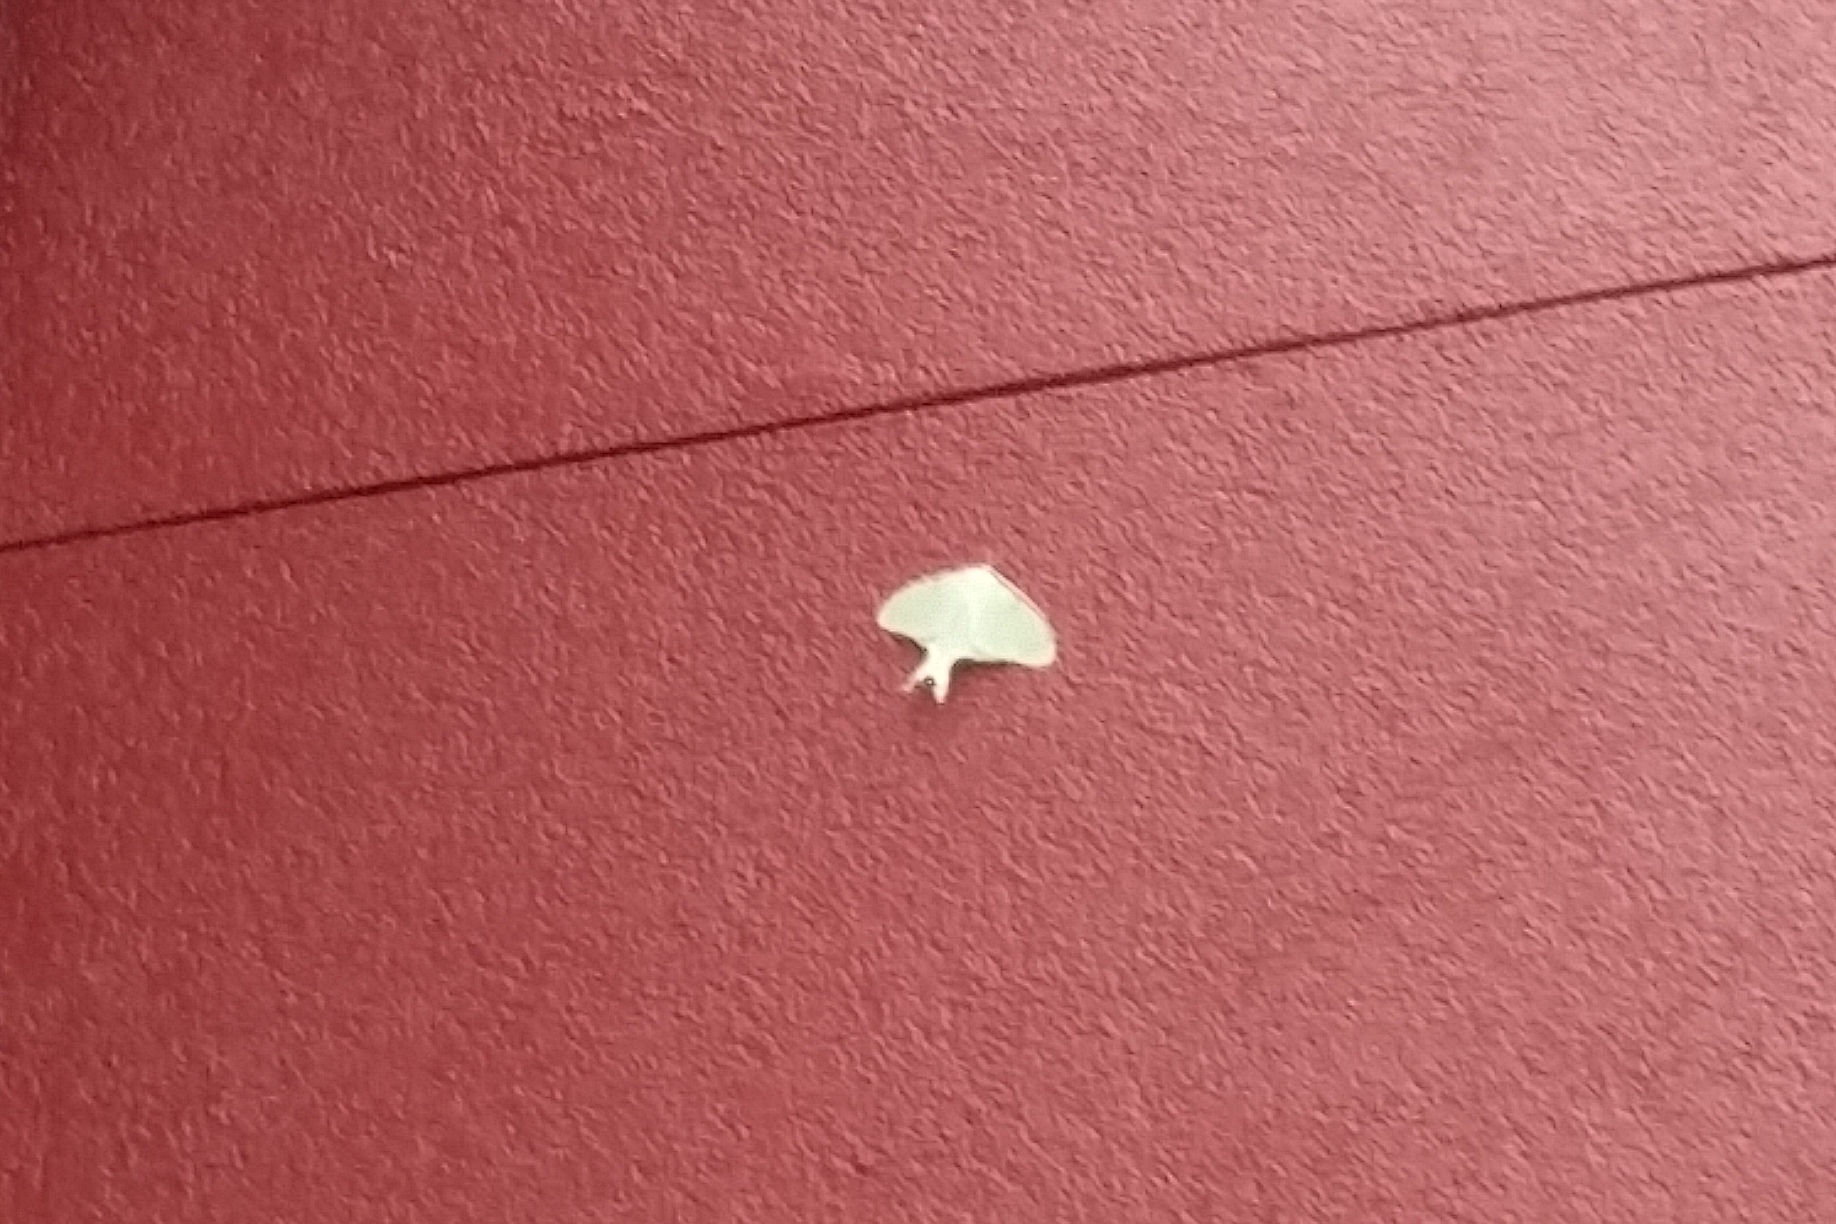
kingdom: Animalia
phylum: Arthropoda
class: Insecta
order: Lepidoptera
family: Saturniidae
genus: Actias
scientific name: Actias luna
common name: Luna moth
